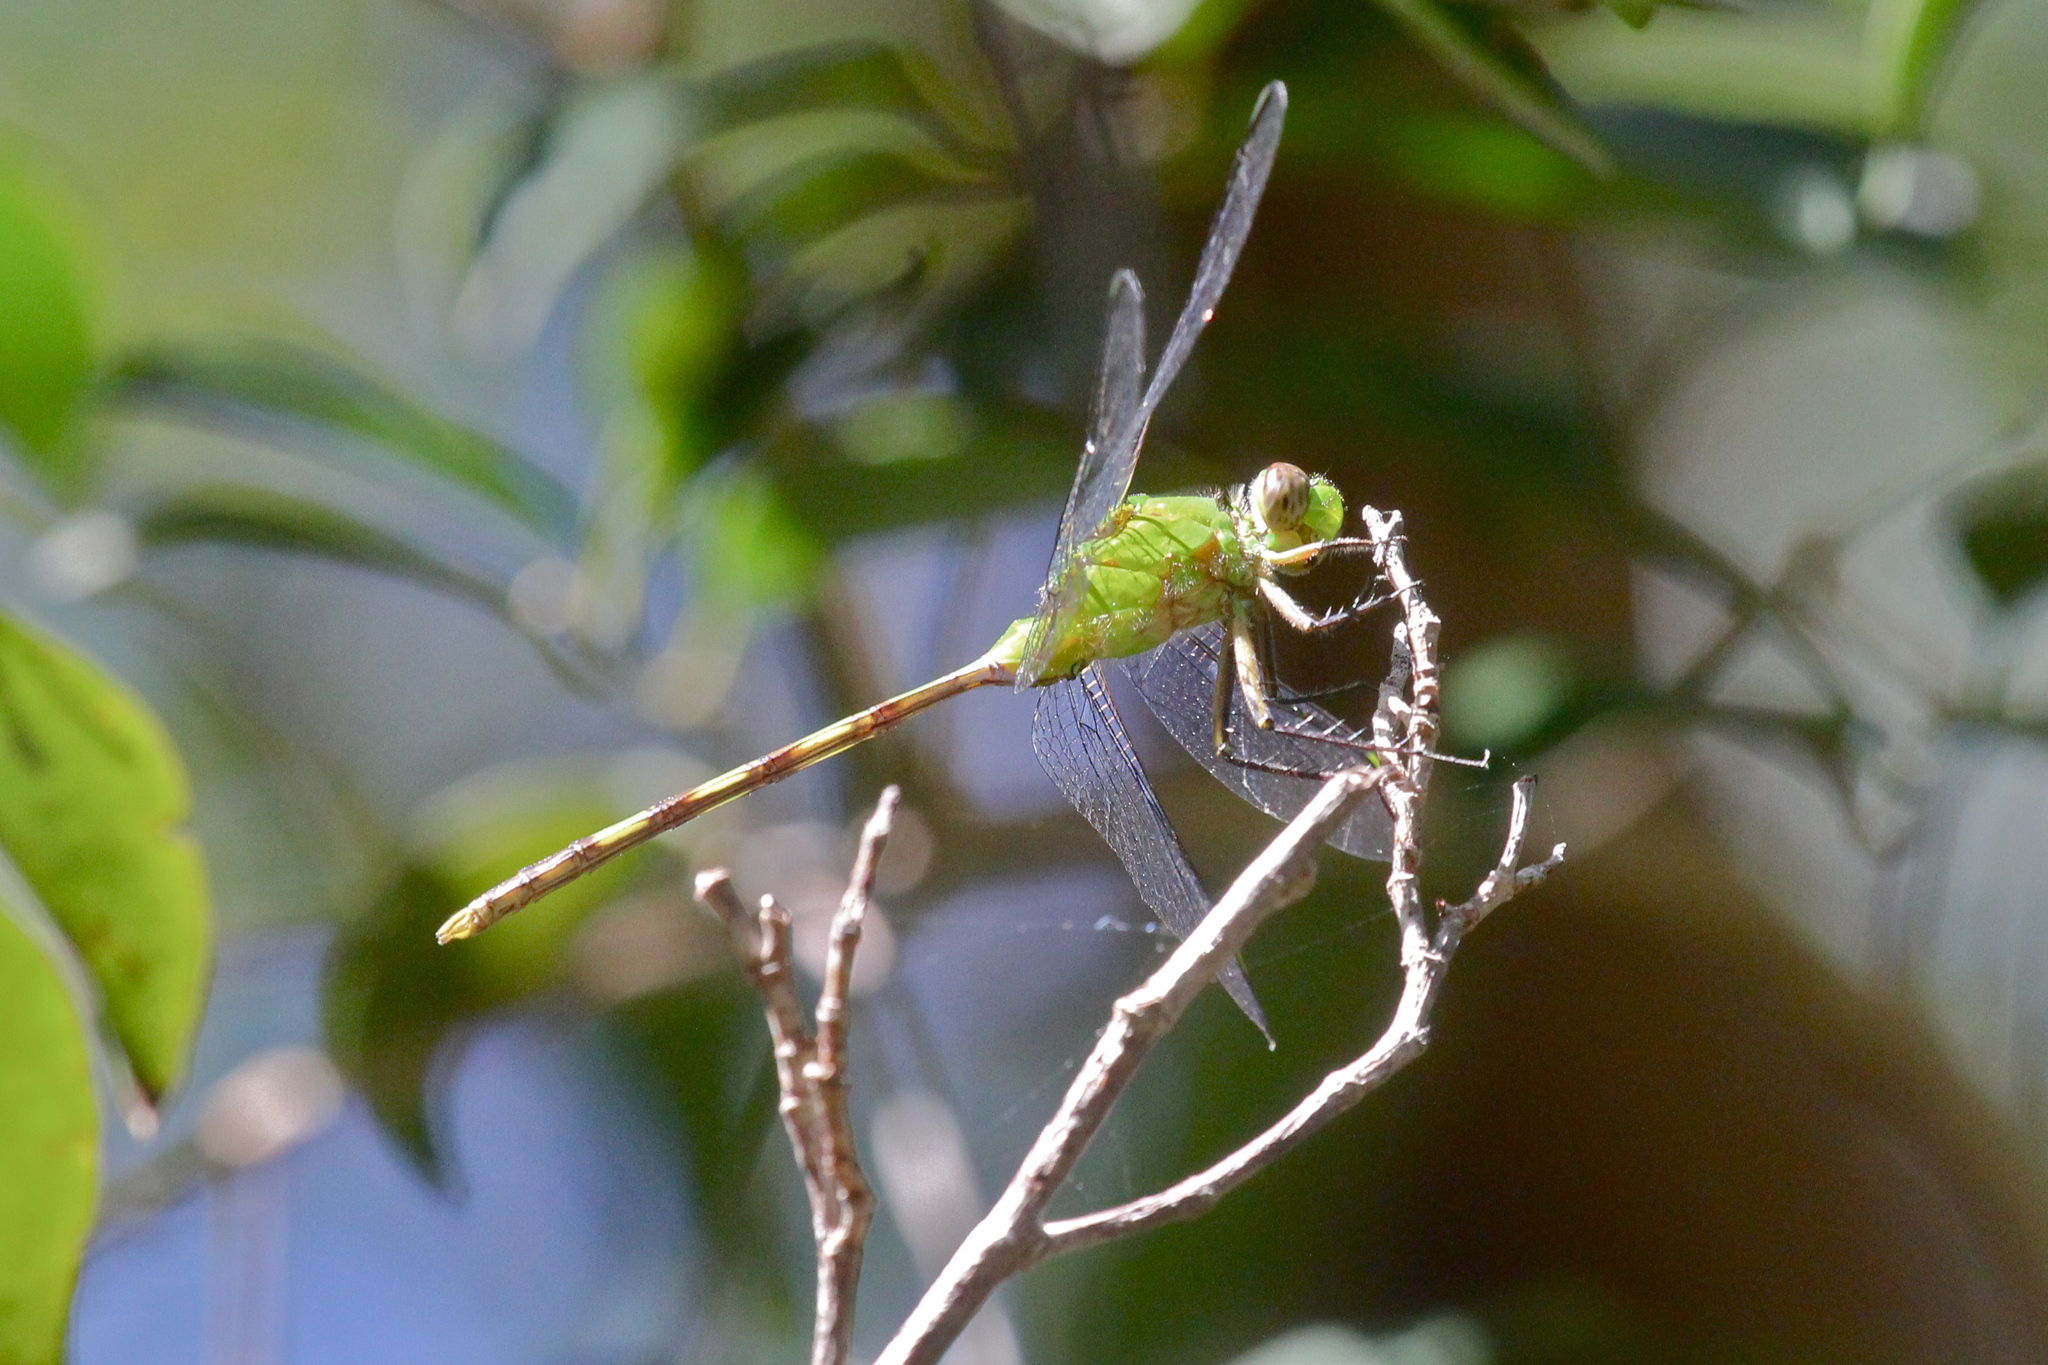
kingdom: Animalia
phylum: Arthropoda
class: Insecta
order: Odonata
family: Libellulidae
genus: Erythemis
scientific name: Erythemis vesiculosa
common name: Great pondhawk
